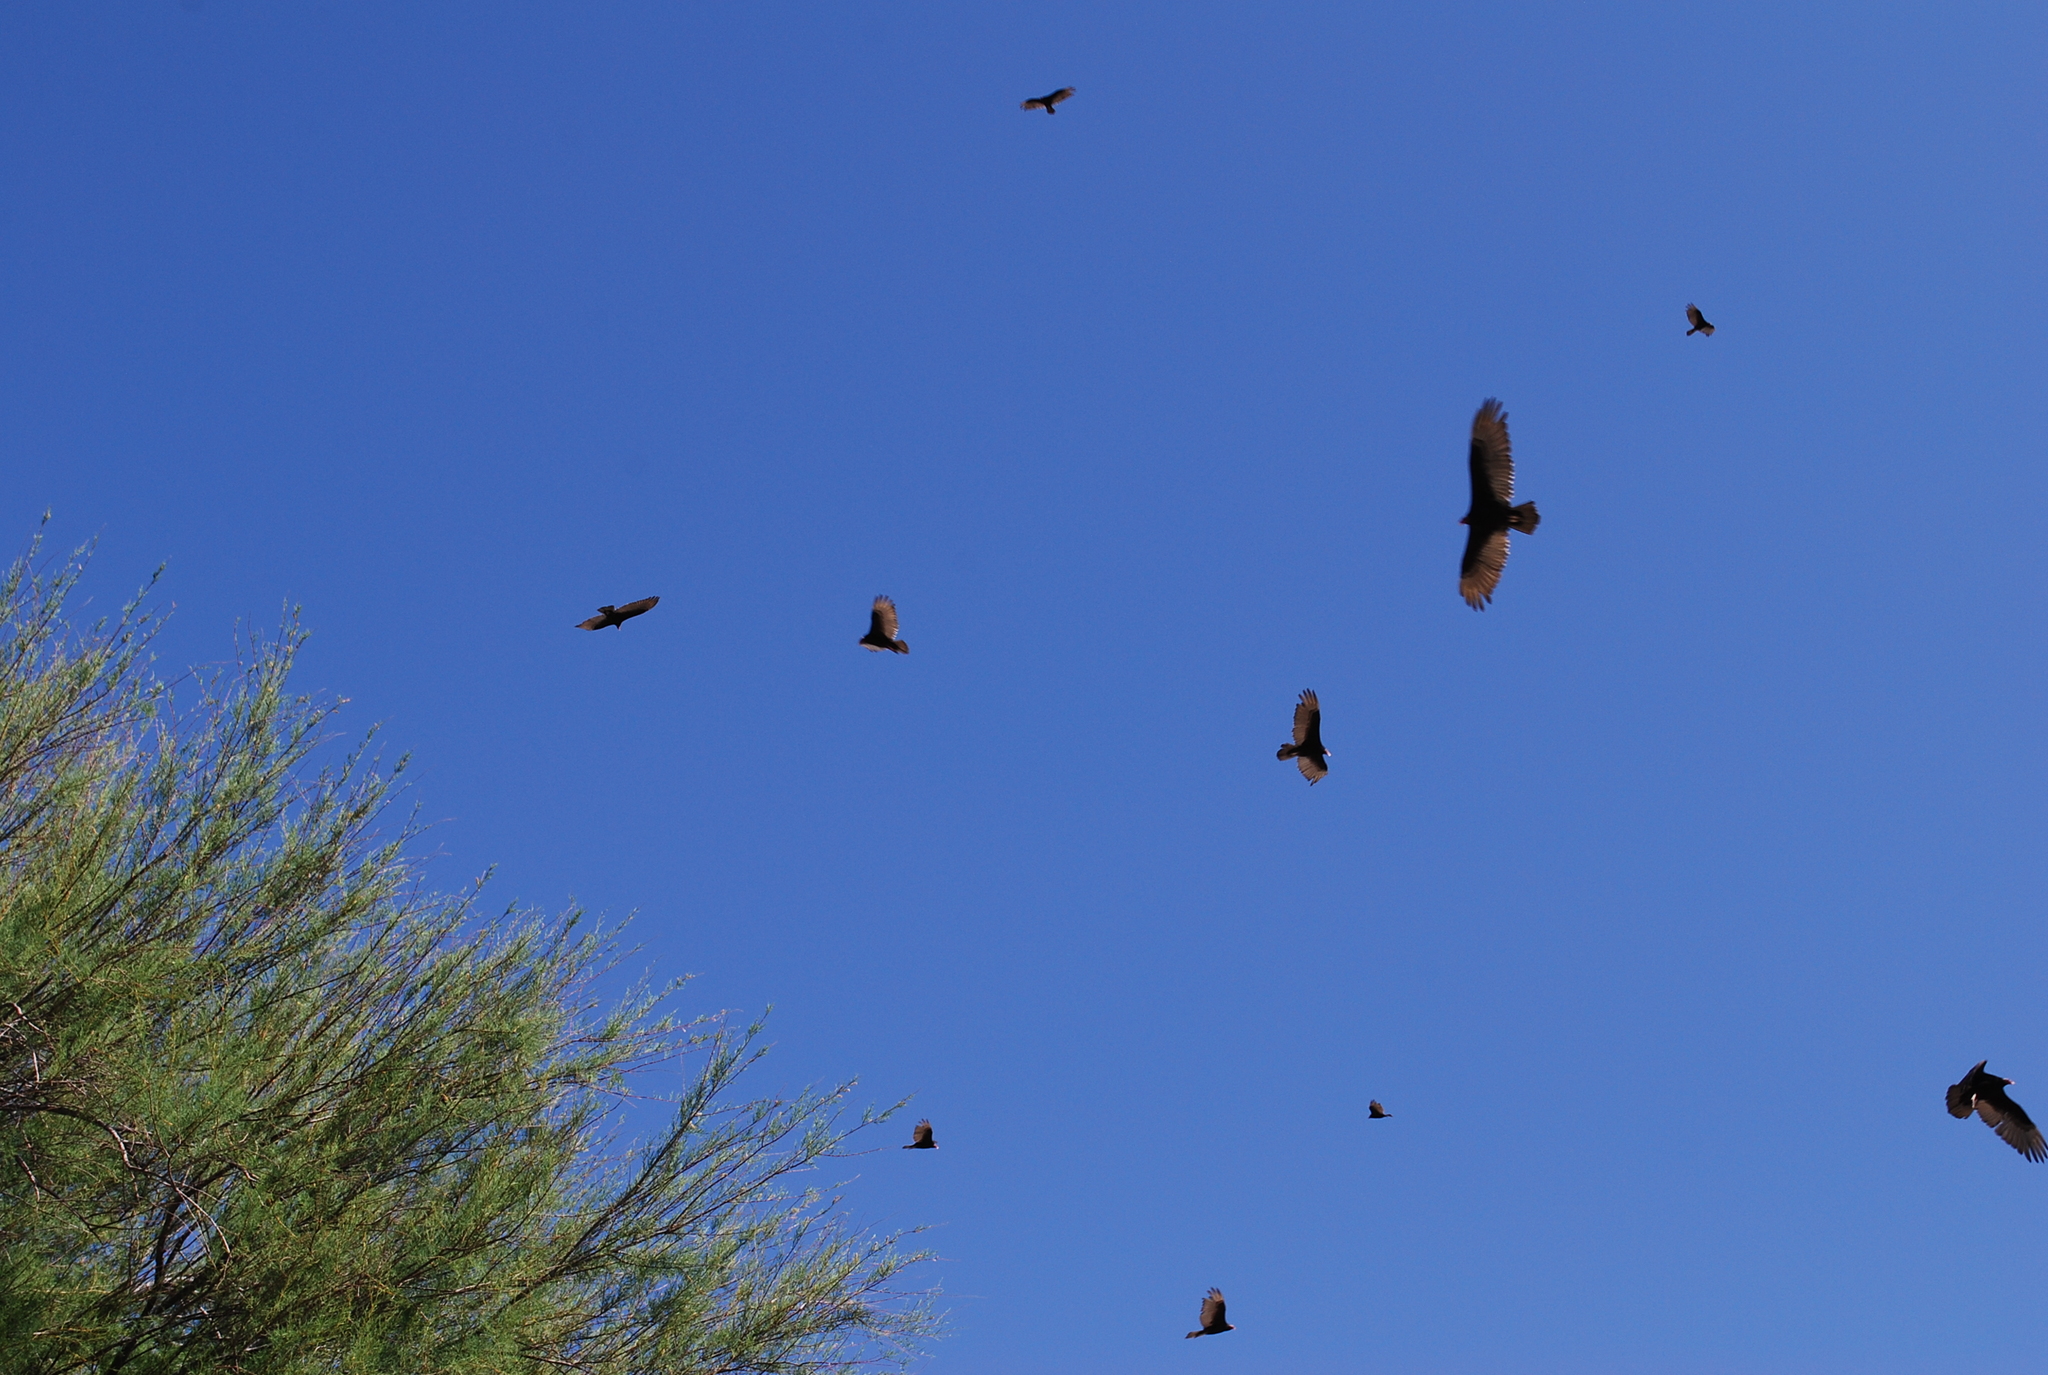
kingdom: Animalia
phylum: Chordata
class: Aves
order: Accipitriformes
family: Cathartidae
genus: Cathartes
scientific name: Cathartes aura
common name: Turkey vulture
